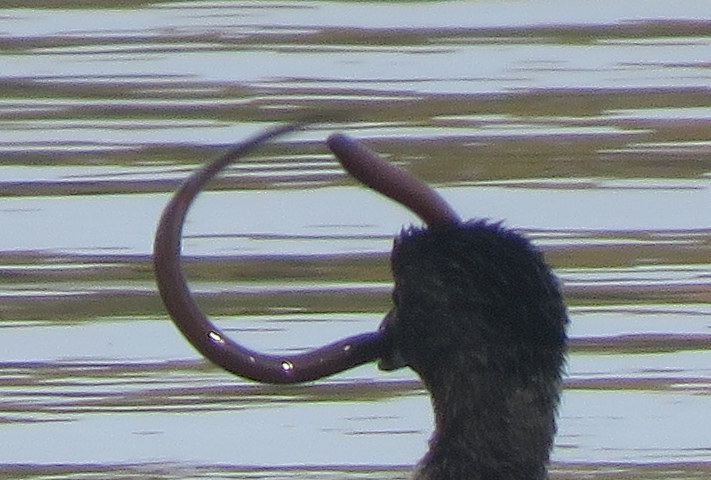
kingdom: Animalia
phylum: Chordata
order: Synbranchiformes
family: Synbranchidae
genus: Synbranchus
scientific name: Synbranchus marmoratus
